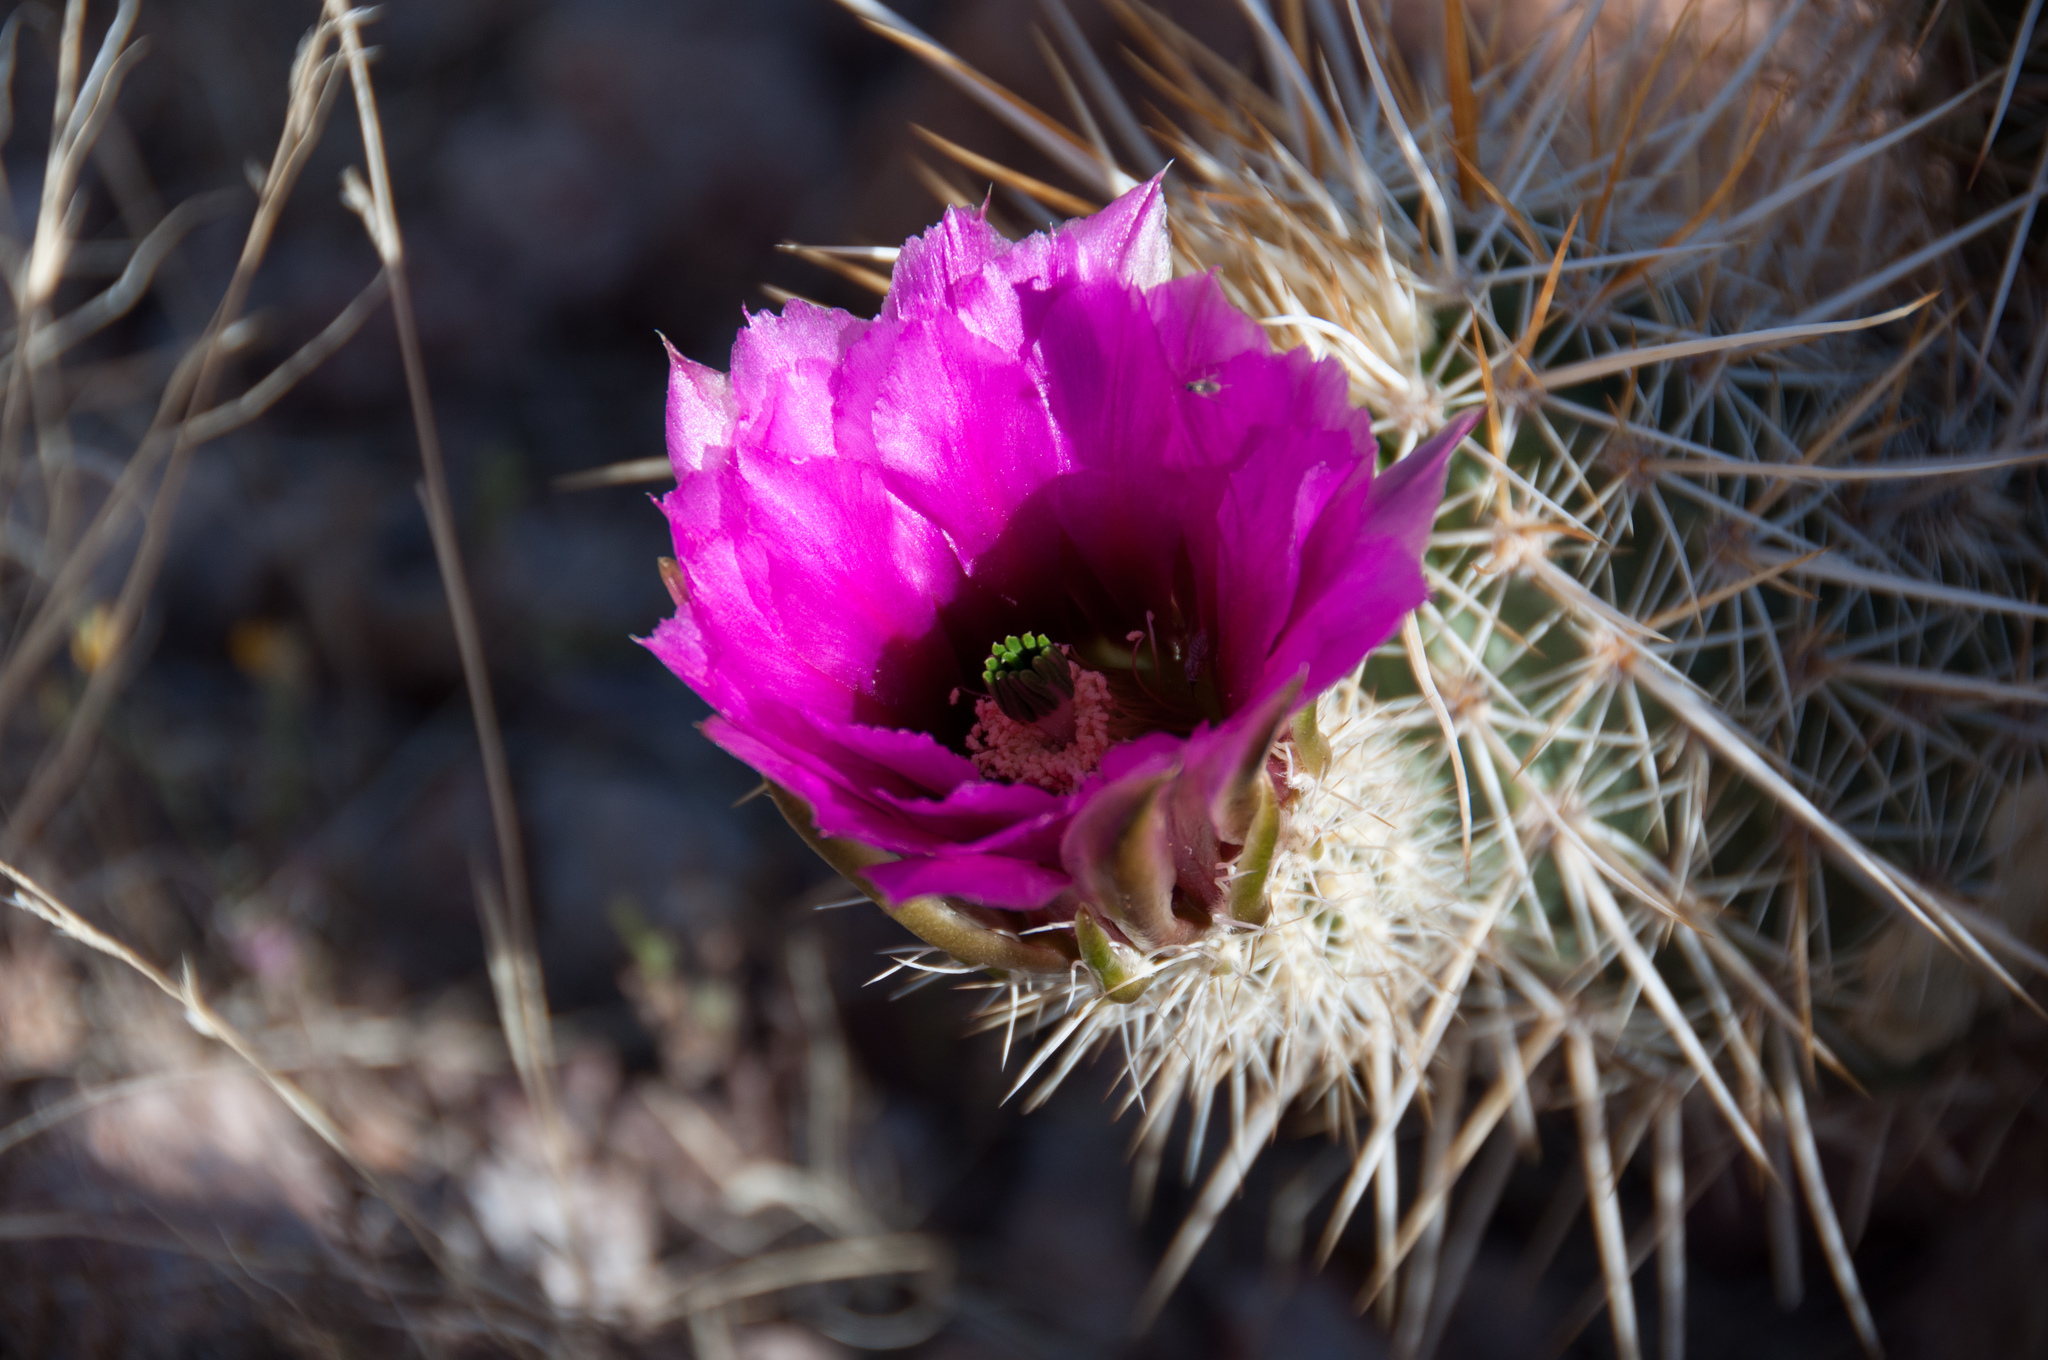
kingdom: Plantae
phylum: Tracheophyta
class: Magnoliopsida
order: Caryophyllales
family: Cactaceae
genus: Echinocereus
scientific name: Echinocereus engelmannii
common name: Engelmann's hedgehog cactus
